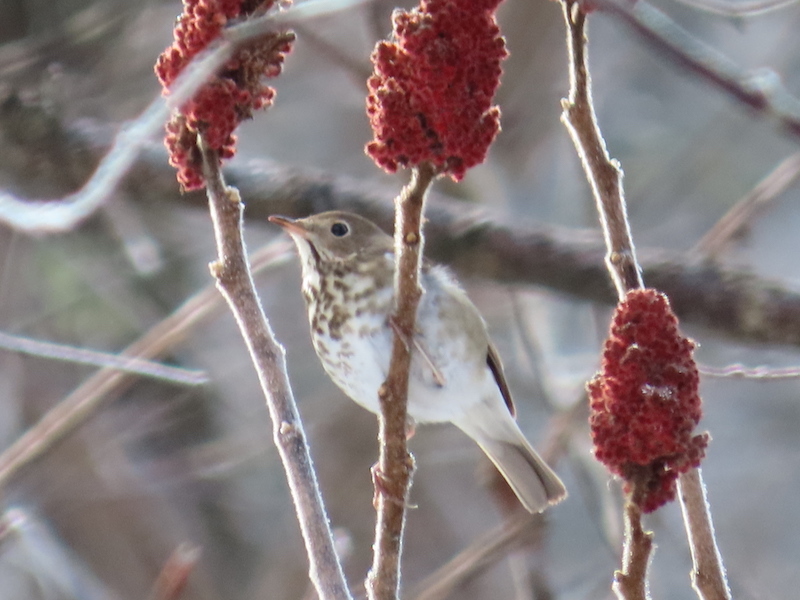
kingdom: Animalia
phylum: Chordata
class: Aves
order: Passeriformes
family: Turdidae
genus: Catharus
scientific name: Catharus guttatus
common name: Hermit thrush
